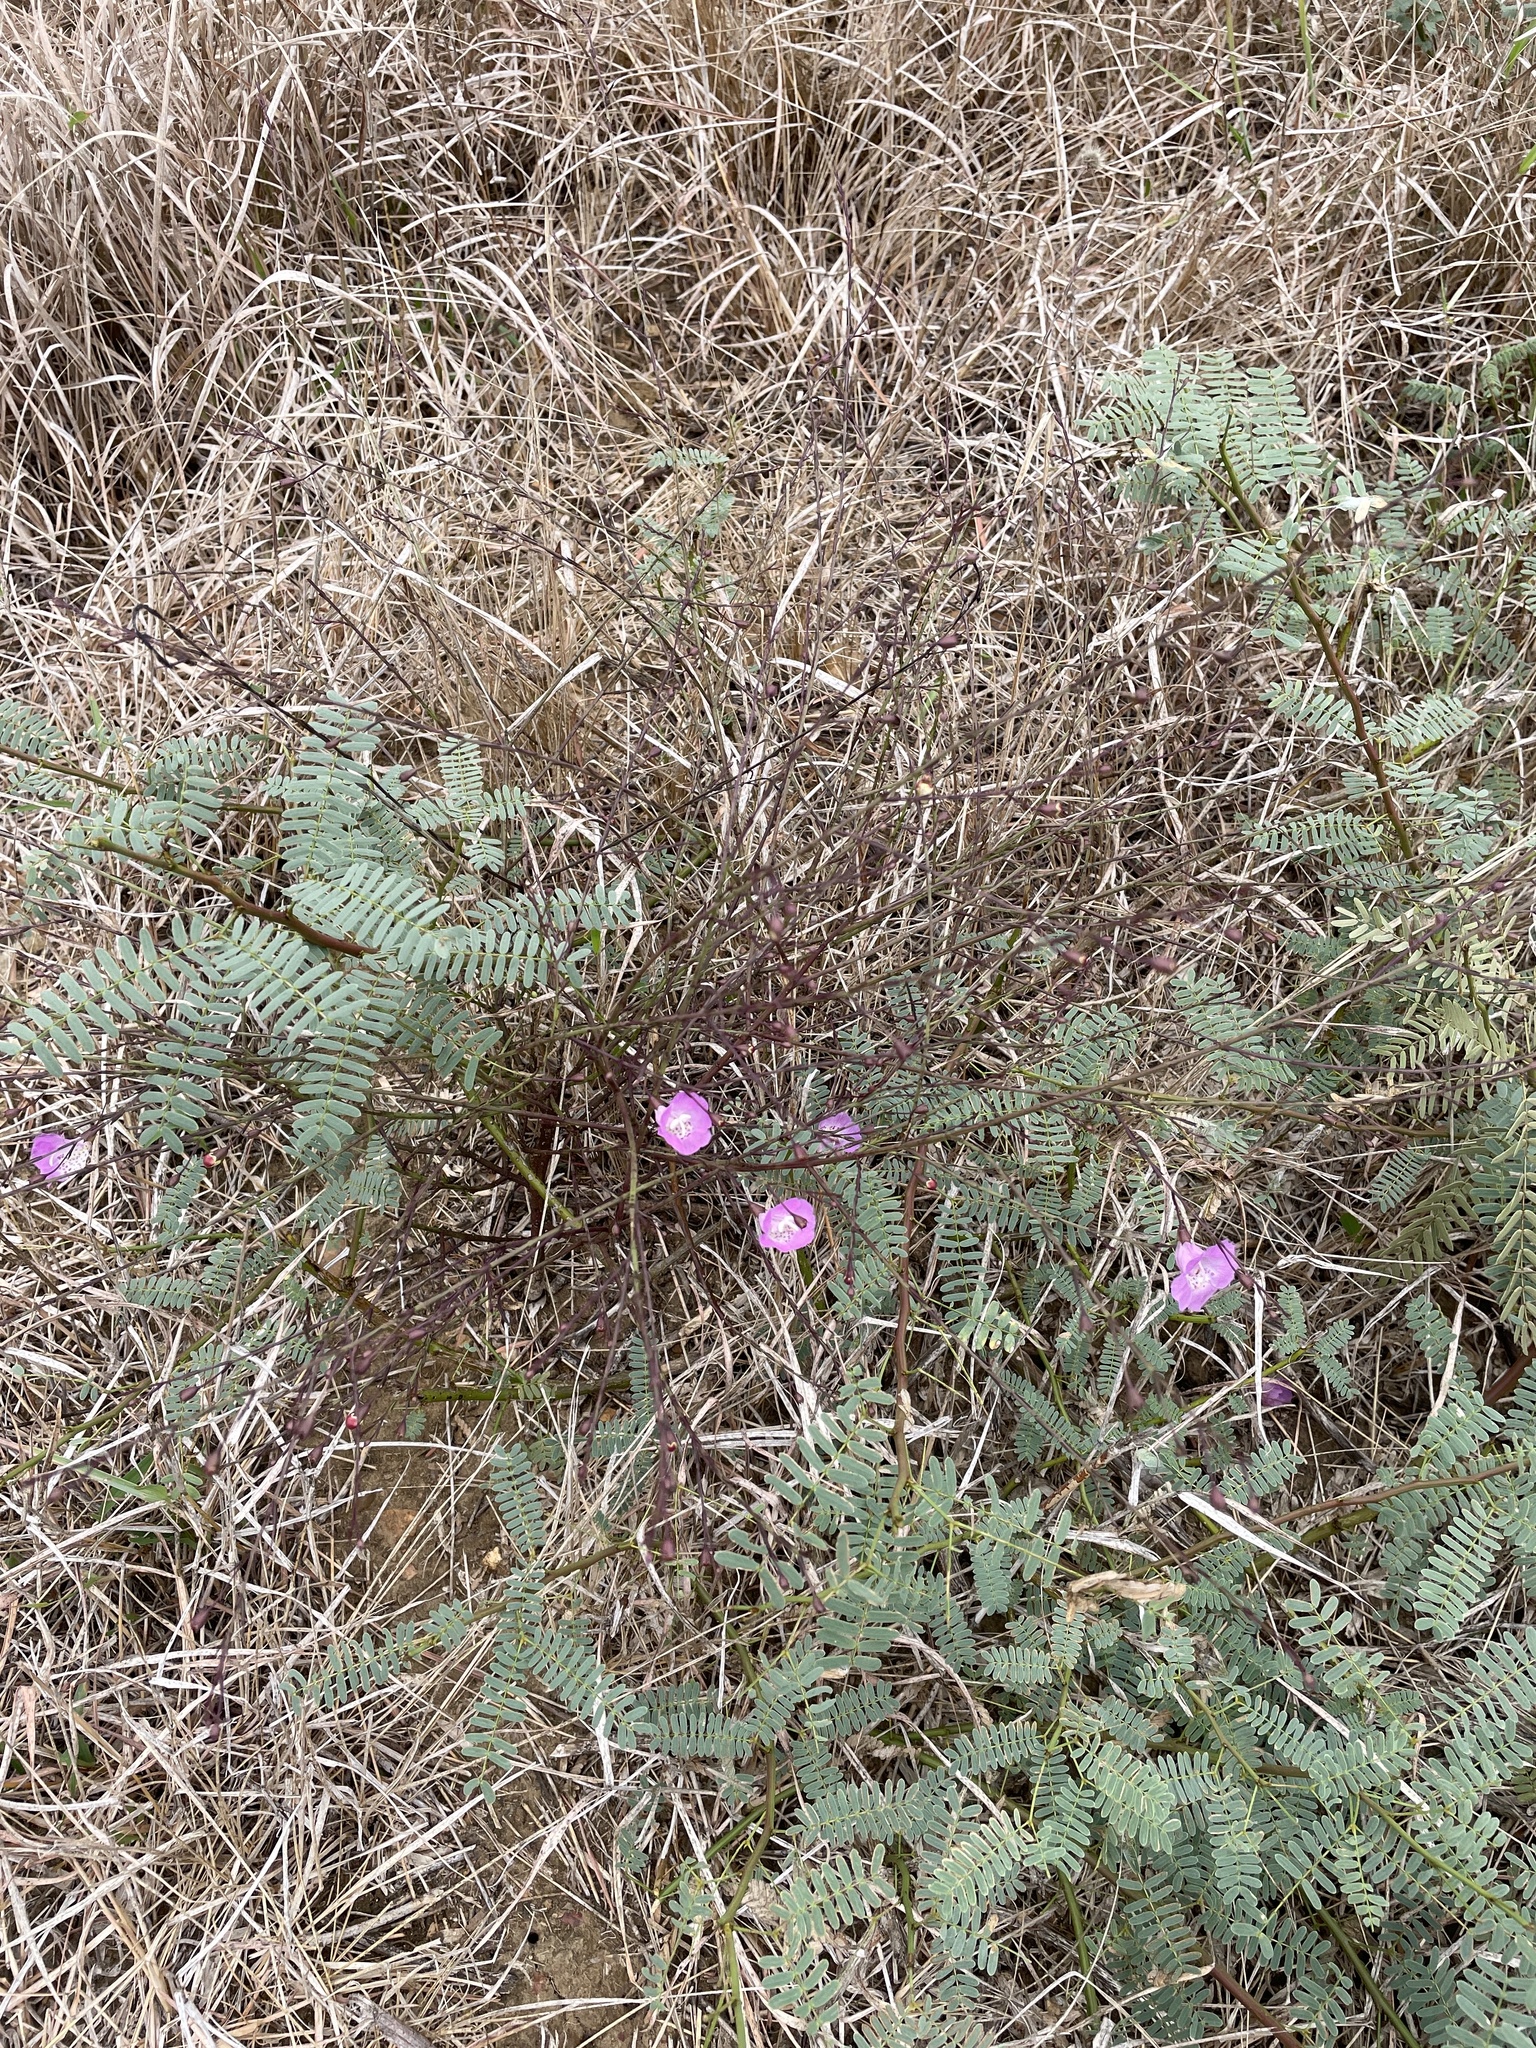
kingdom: Plantae
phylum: Tracheophyta
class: Magnoliopsida
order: Lamiales
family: Orobanchaceae
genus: Agalinis
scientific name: Agalinis strictifolia
